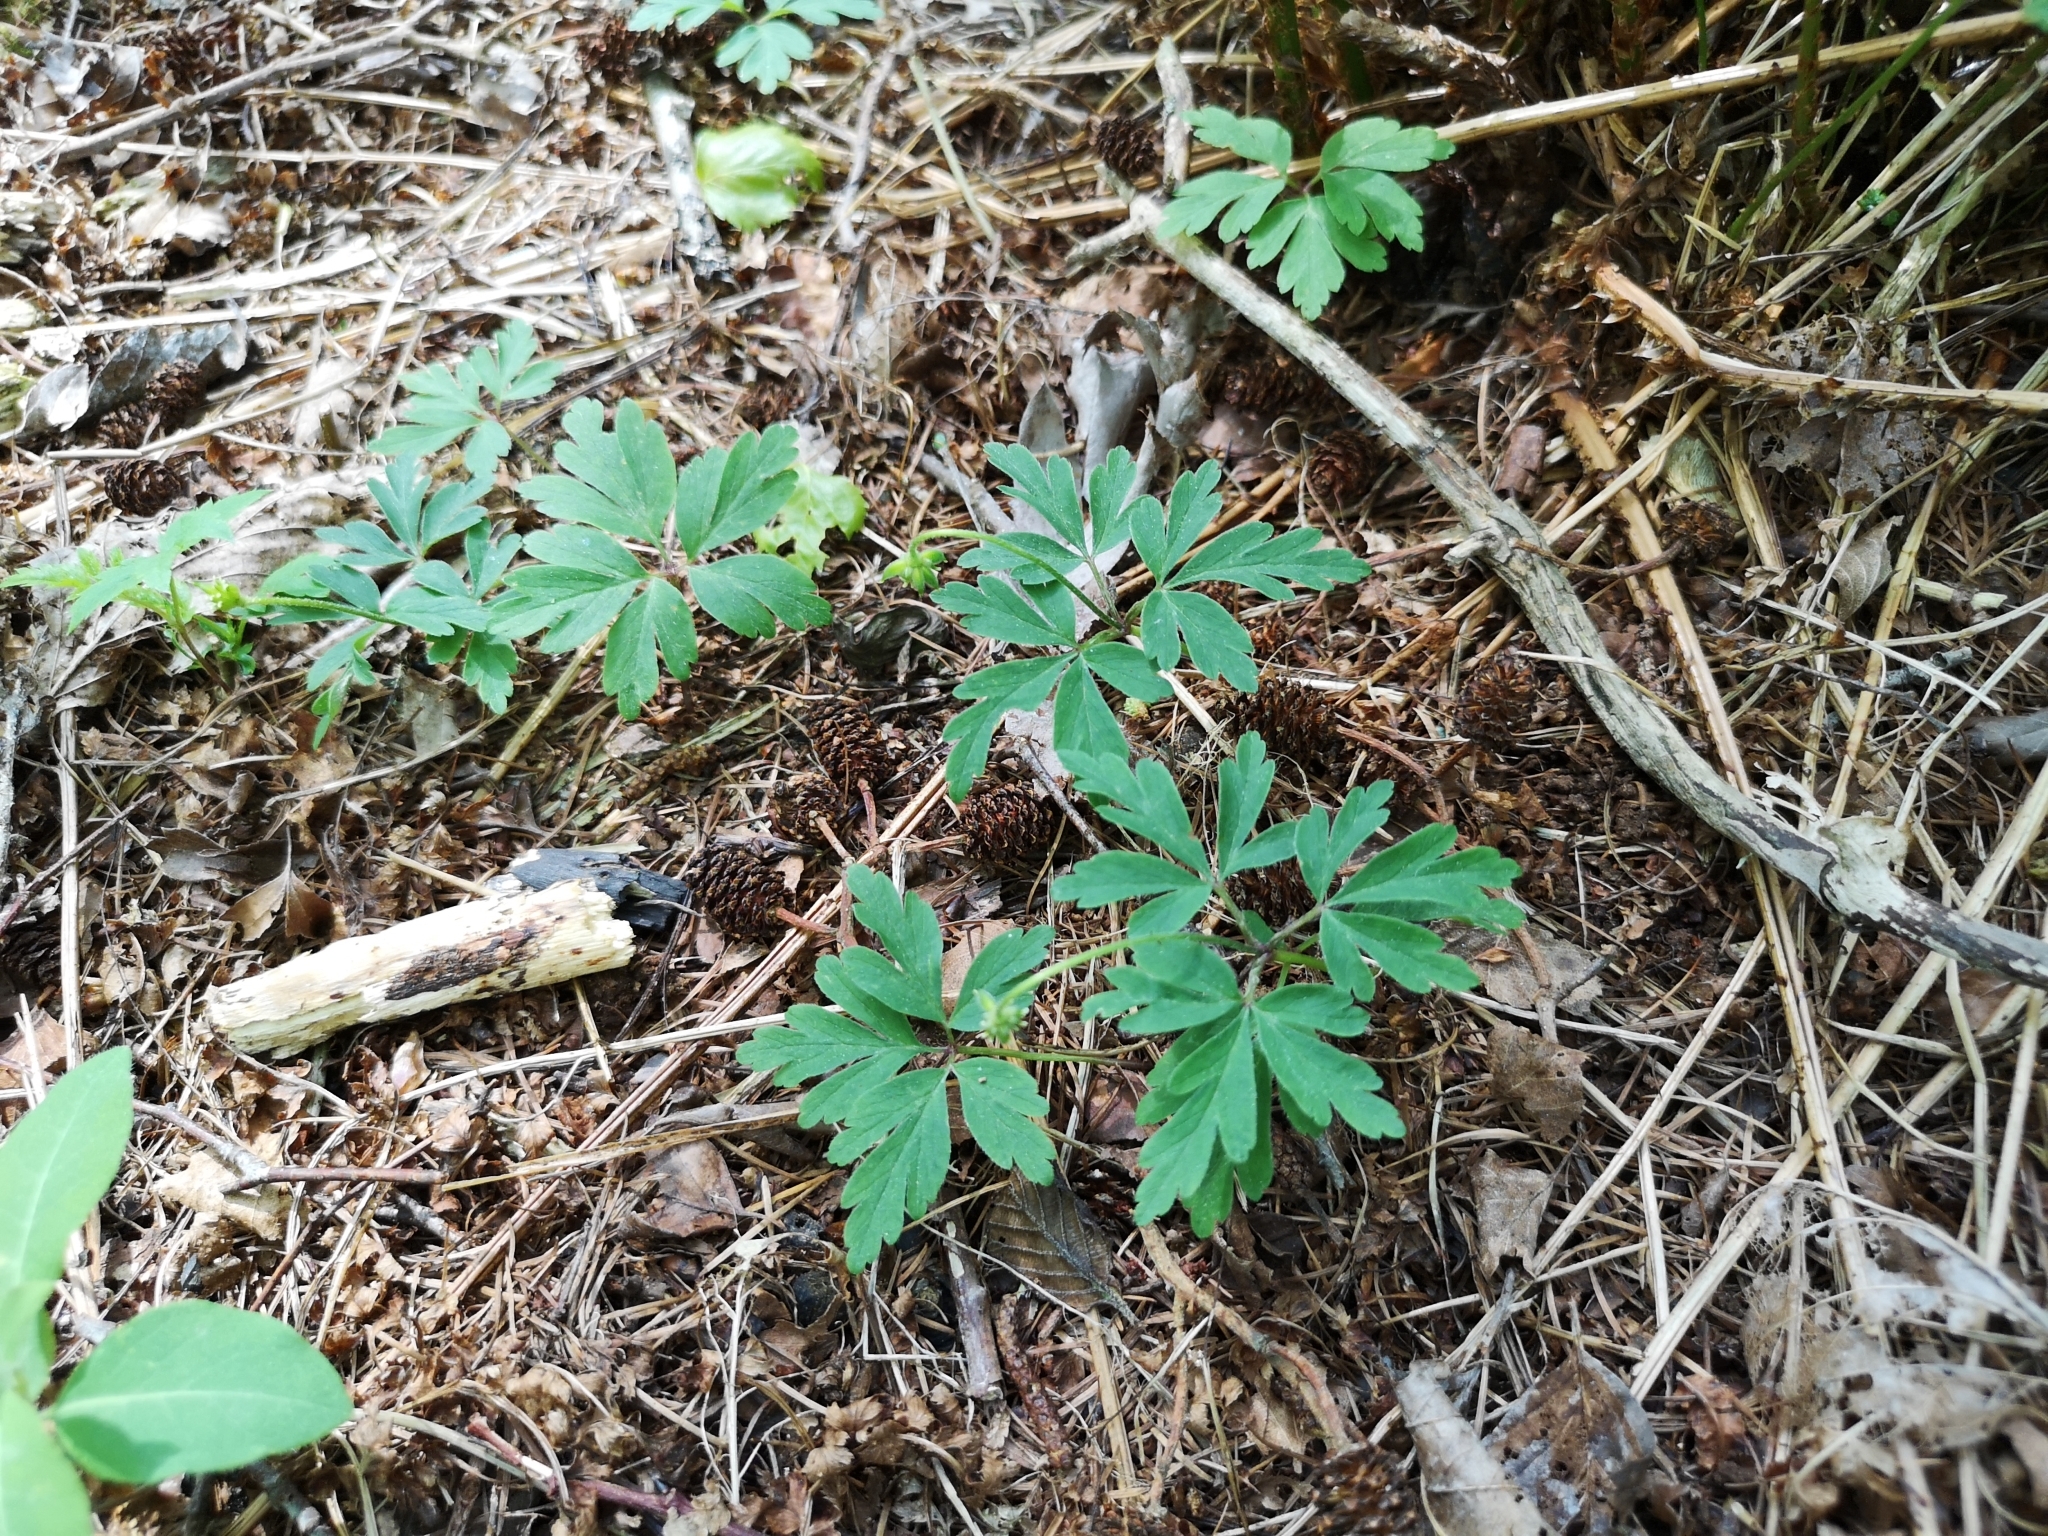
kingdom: Plantae
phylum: Tracheophyta
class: Magnoliopsida
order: Ranunculales
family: Ranunculaceae
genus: Anemone
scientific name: Anemone nemorosa
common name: Wood anemone
